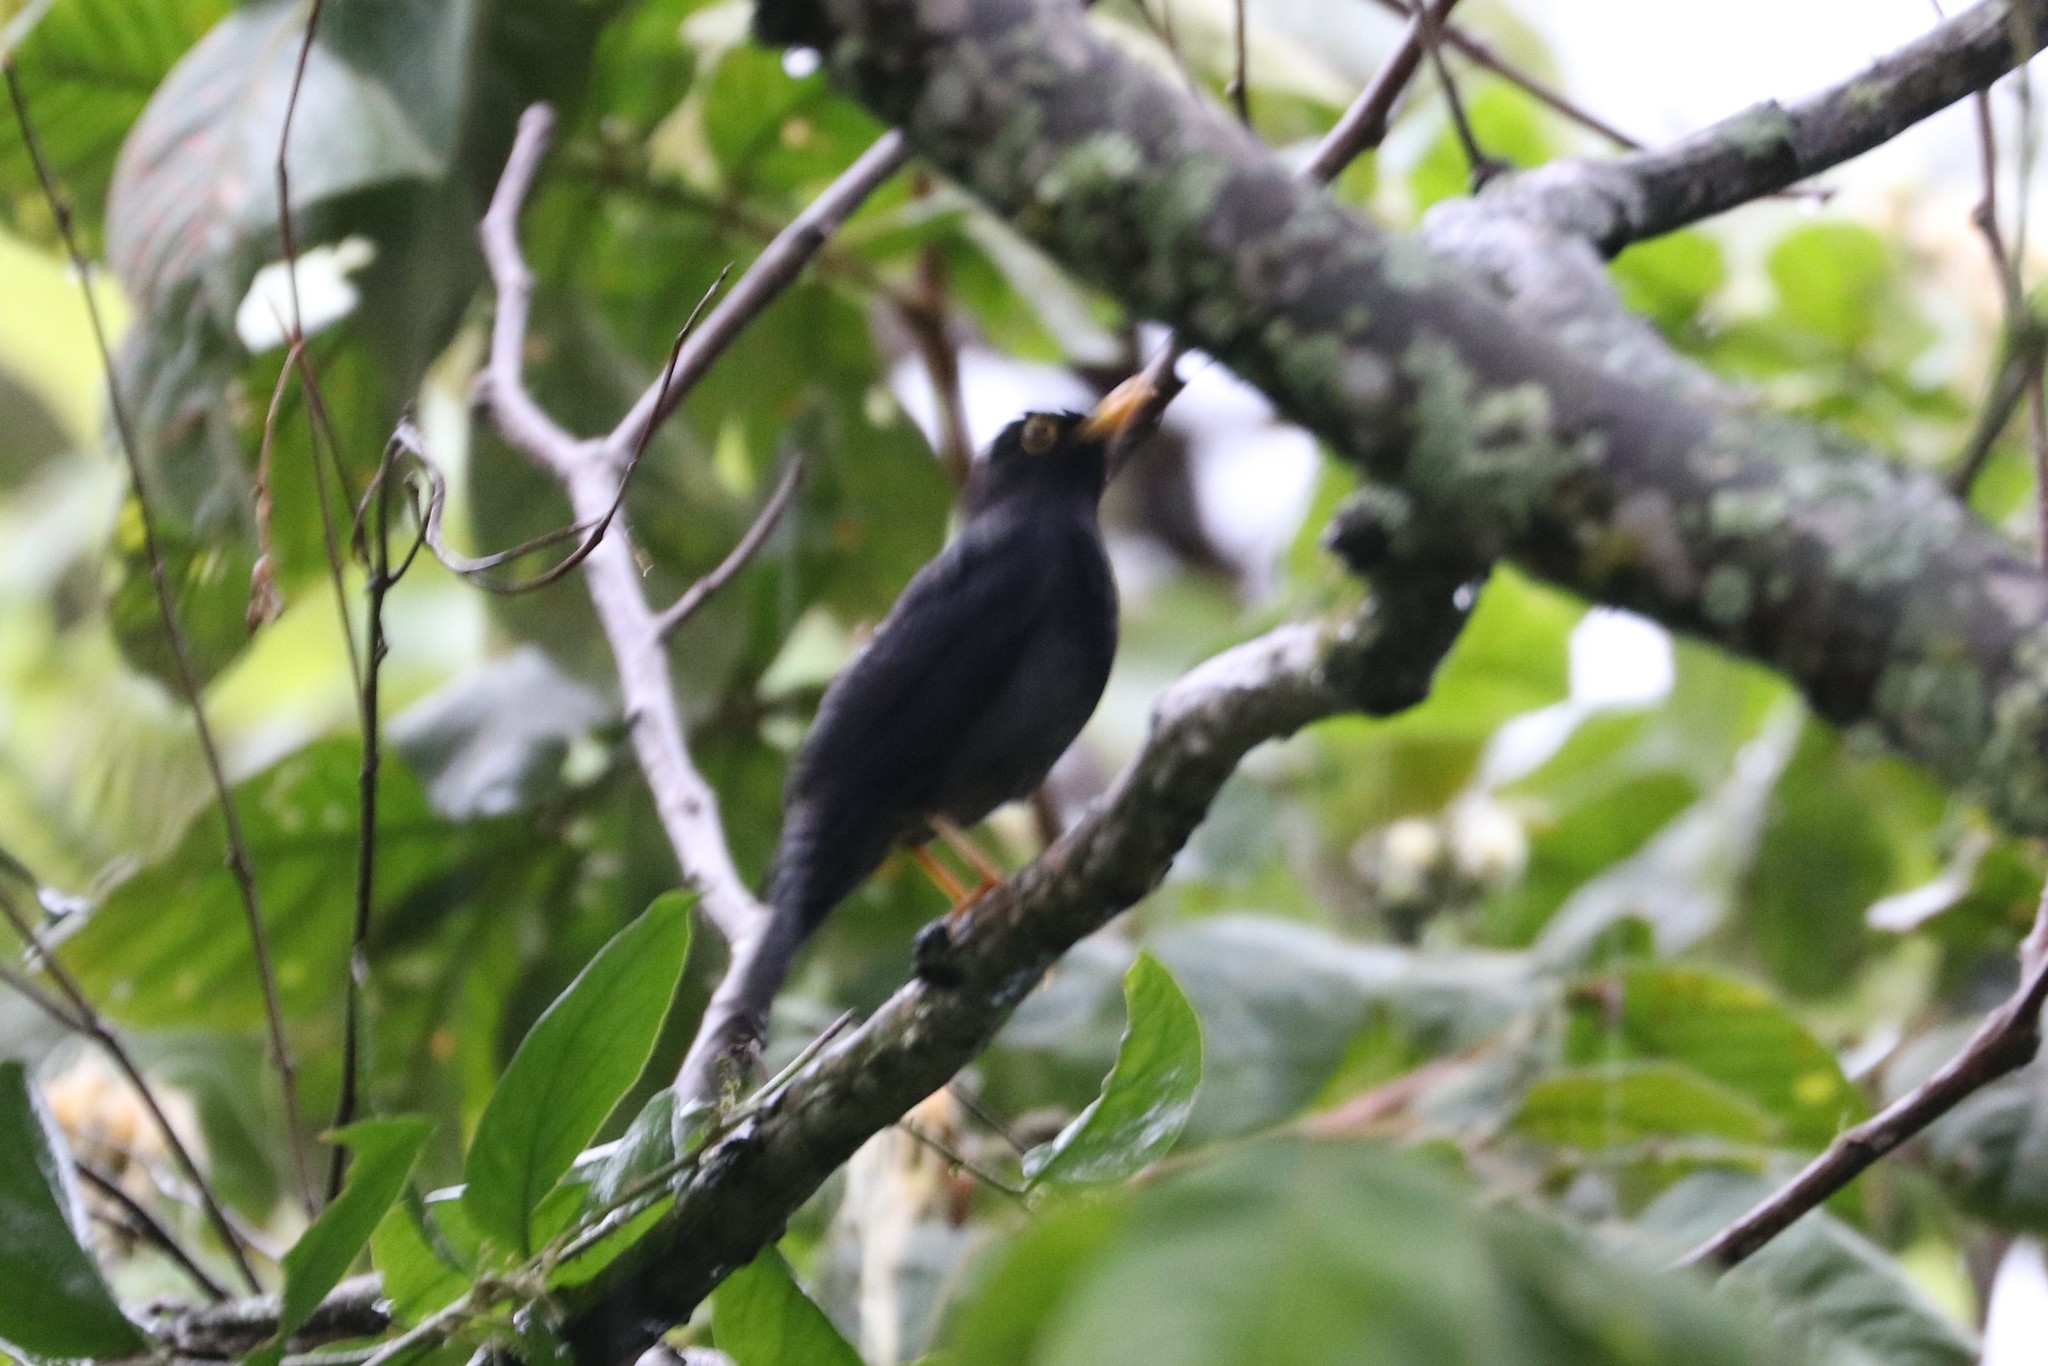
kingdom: Animalia
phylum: Chordata
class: Aves
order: Passeriformes
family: Turdidae
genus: Turdus
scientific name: Turdus flavipes
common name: Yellow-legged thrush
